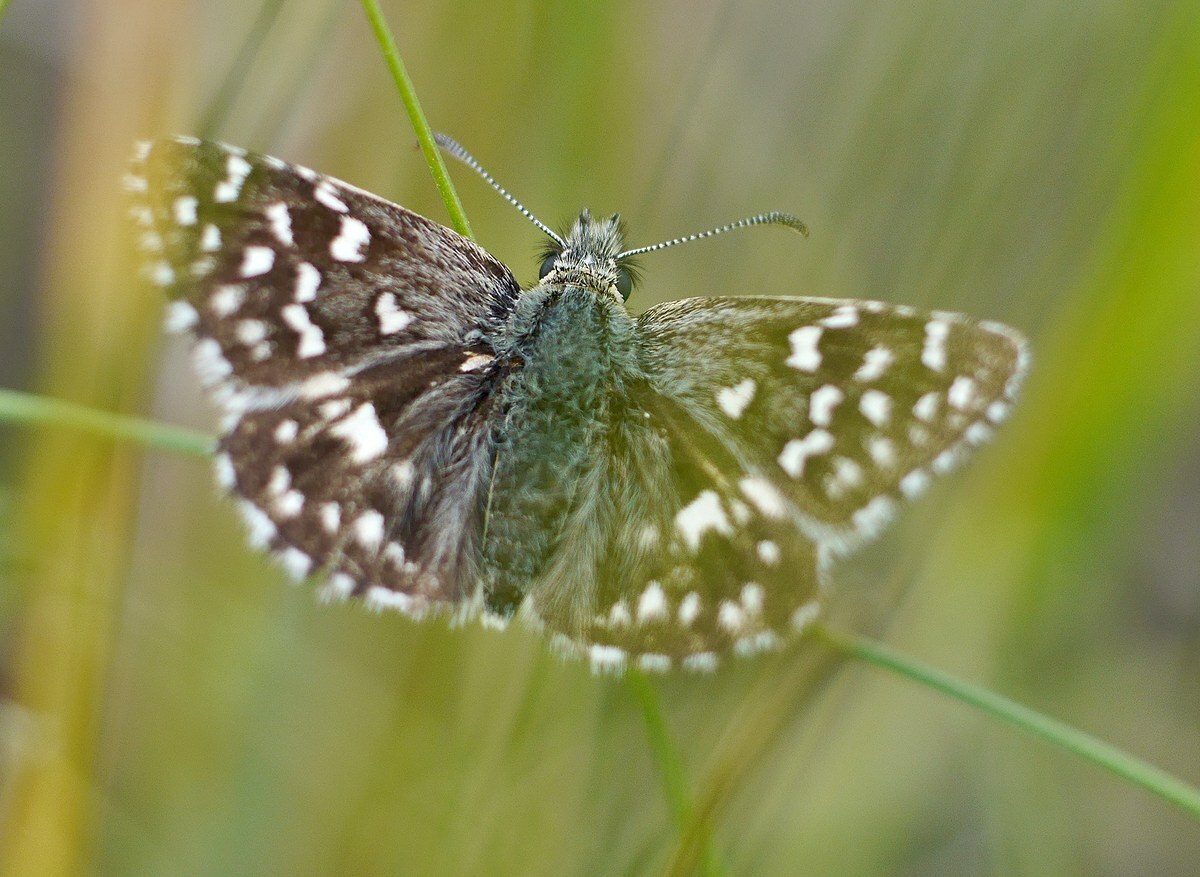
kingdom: Animalia
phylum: Arthropoda
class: Insecta
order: Lepidoptera
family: Hesperiidae
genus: Pyrgus
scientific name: Pyrgus malvae
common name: Grizzled skipper
